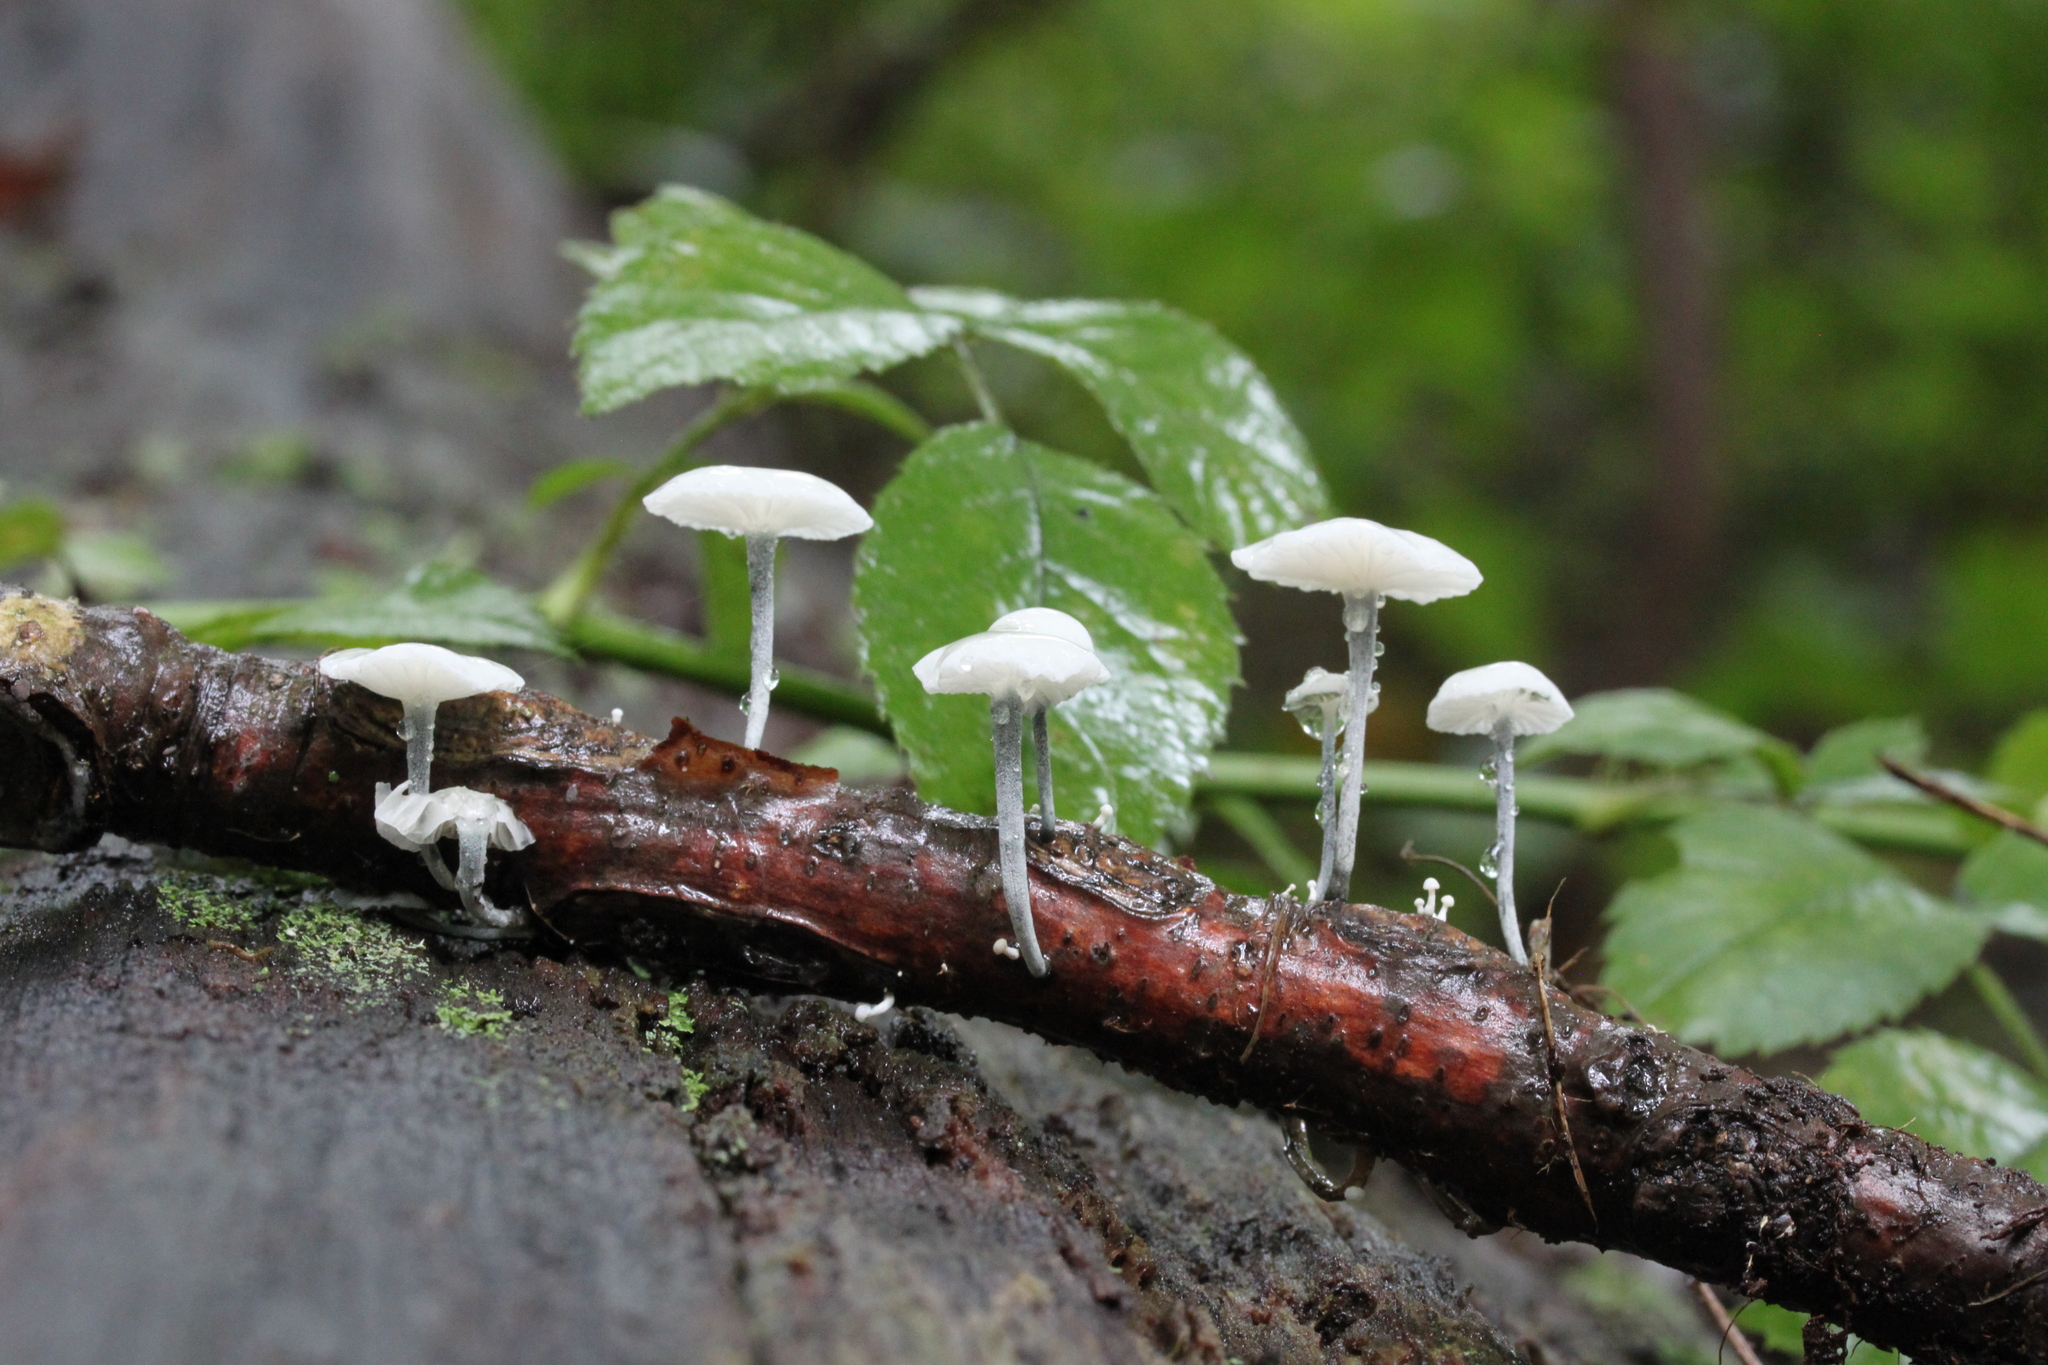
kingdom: Fungi
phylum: Basidiomycota
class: Agaricomycetes
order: Agaricales
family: Marasmiaceae
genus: Tetrapyrgos
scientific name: Tetrapyrgos nigripes
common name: Black-stalked marasmius
